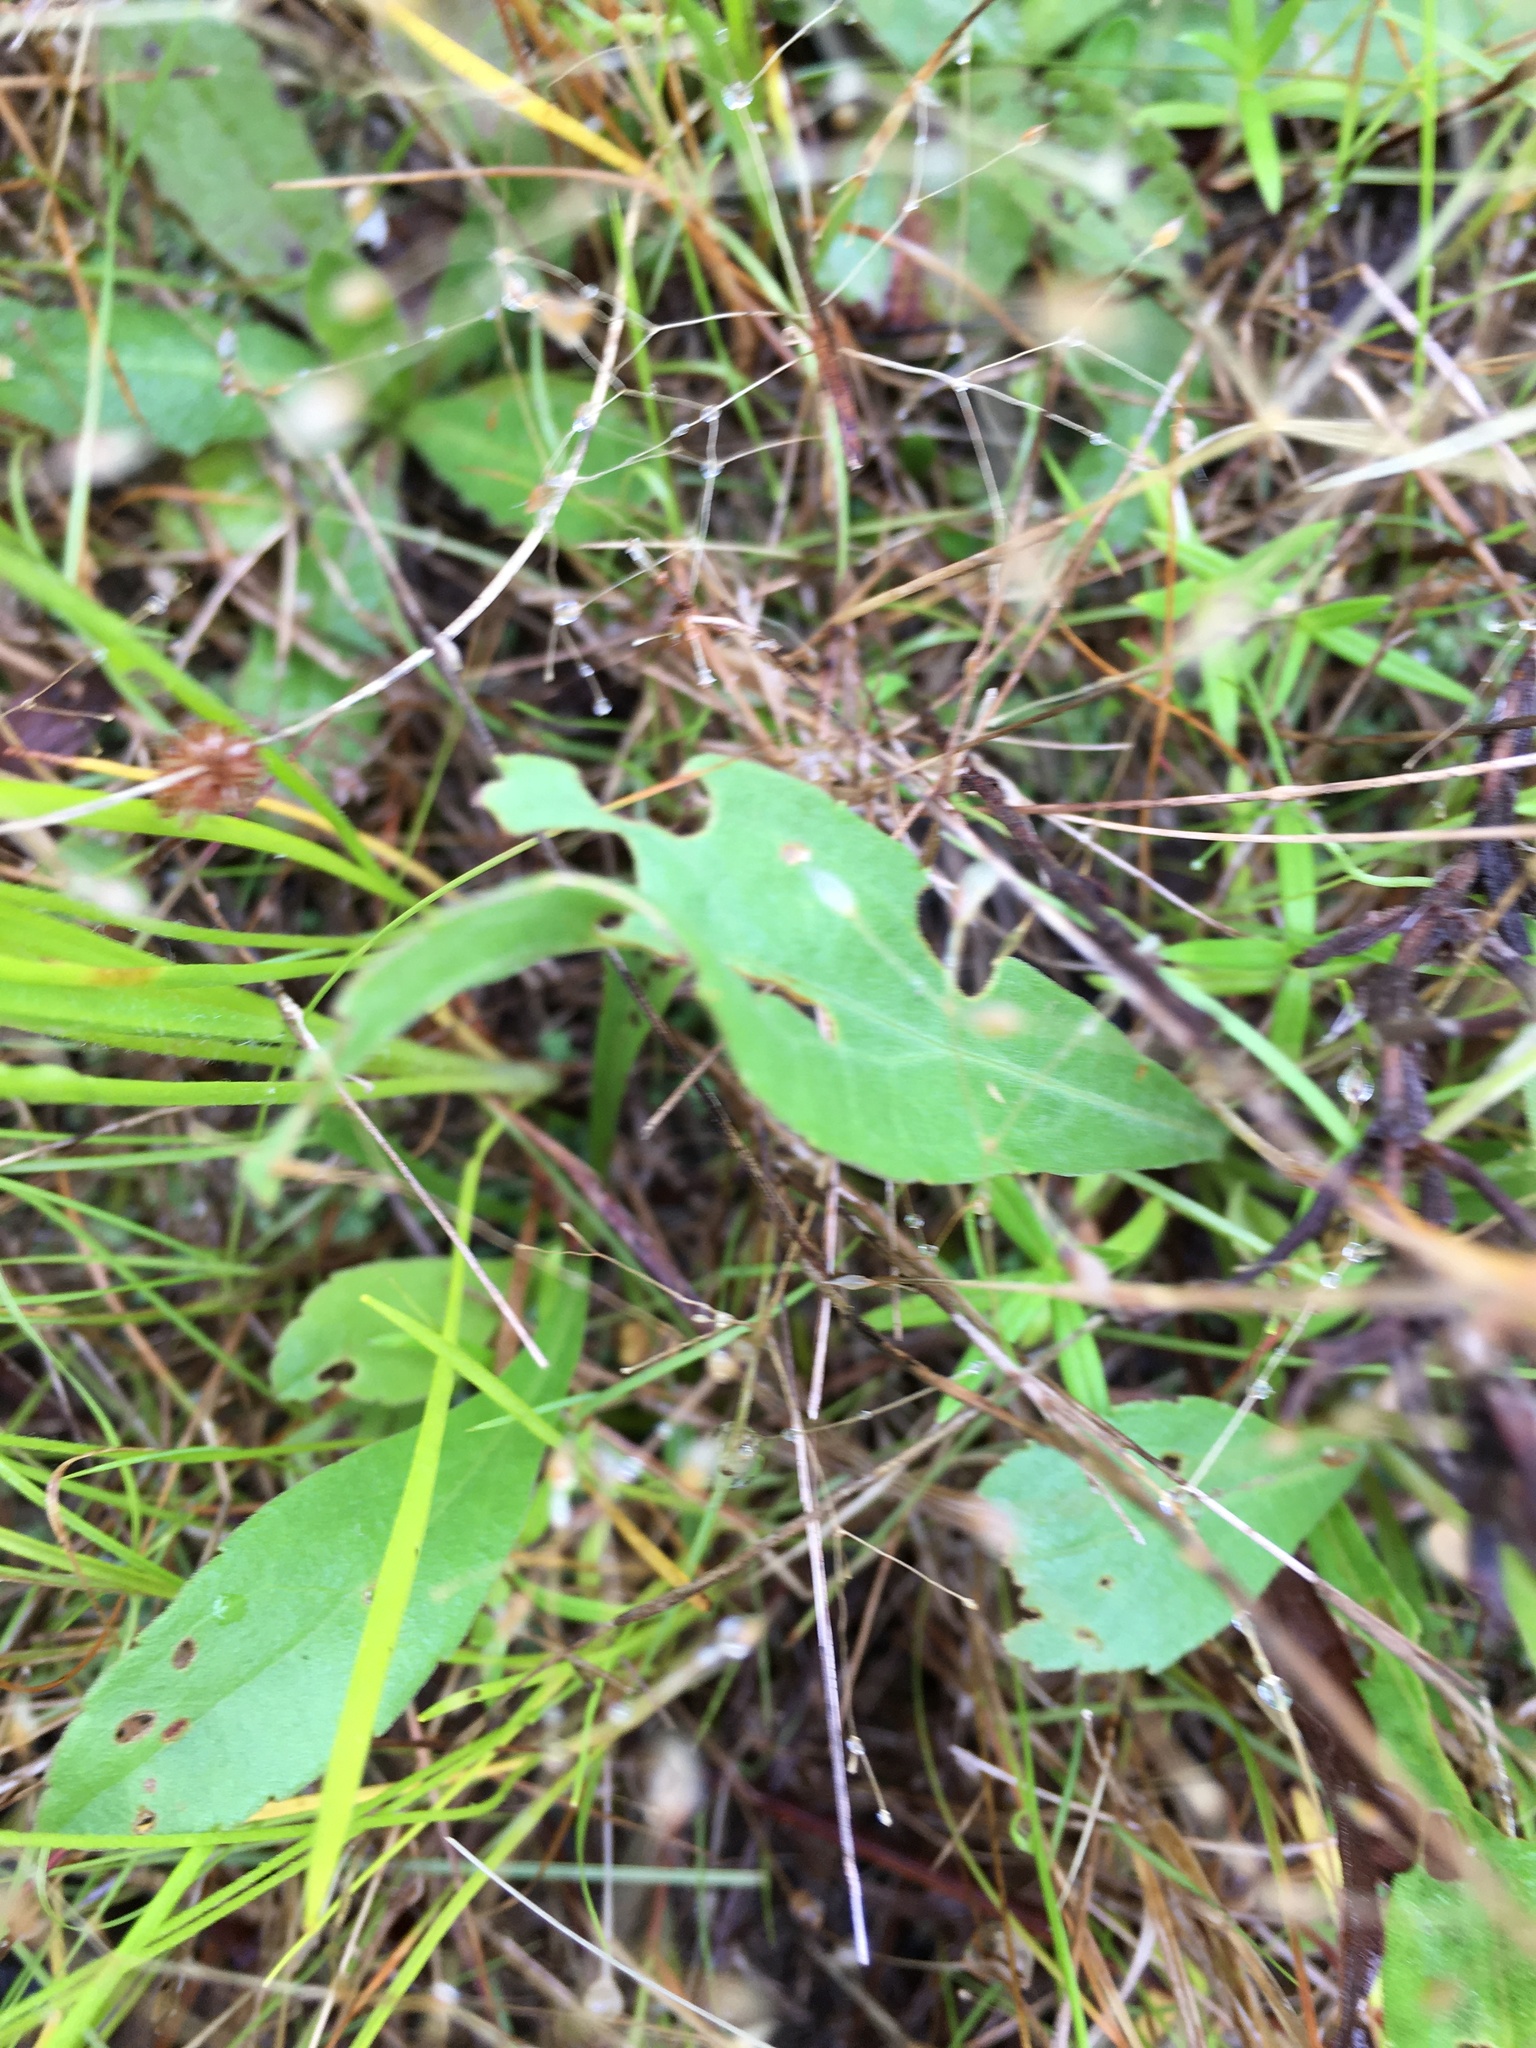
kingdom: Plantae
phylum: Tracheophyta
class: Magnoliopsida
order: Lamiales
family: Plantaginaceae
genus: Plantago
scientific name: Plantago aristata
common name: Bracted plantain
